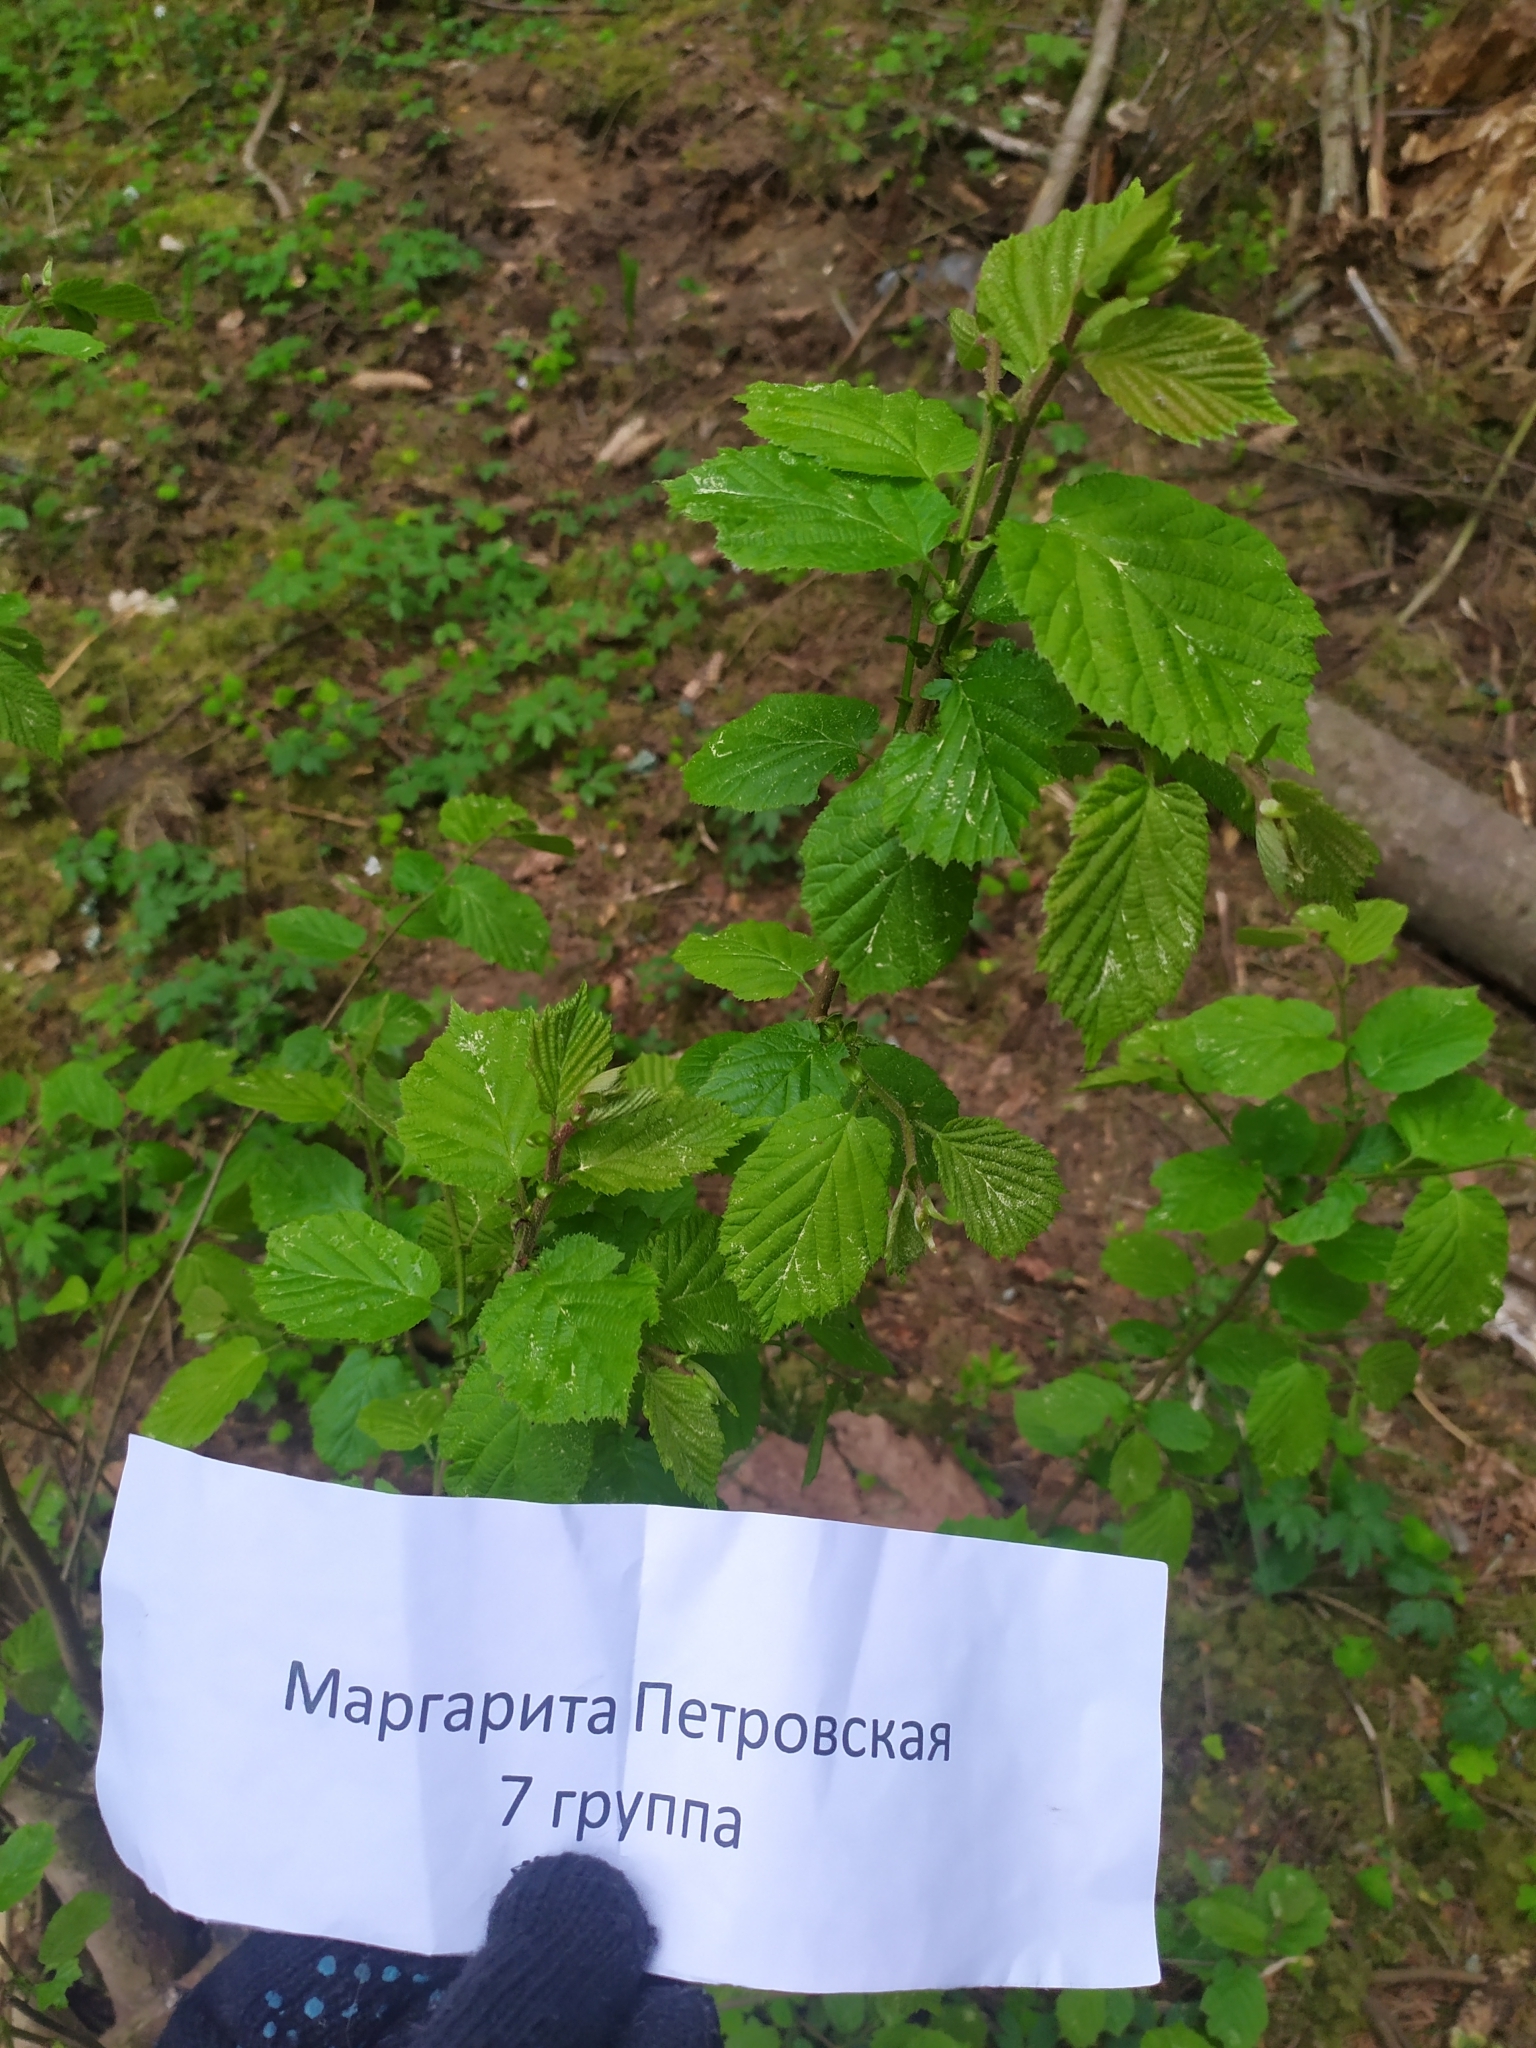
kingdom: Plantae
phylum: Tracheophyta
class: Magnoliopsida
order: Fagales
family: Betulaceae
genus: Corylus
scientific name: Corylus avellana
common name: European hazel
